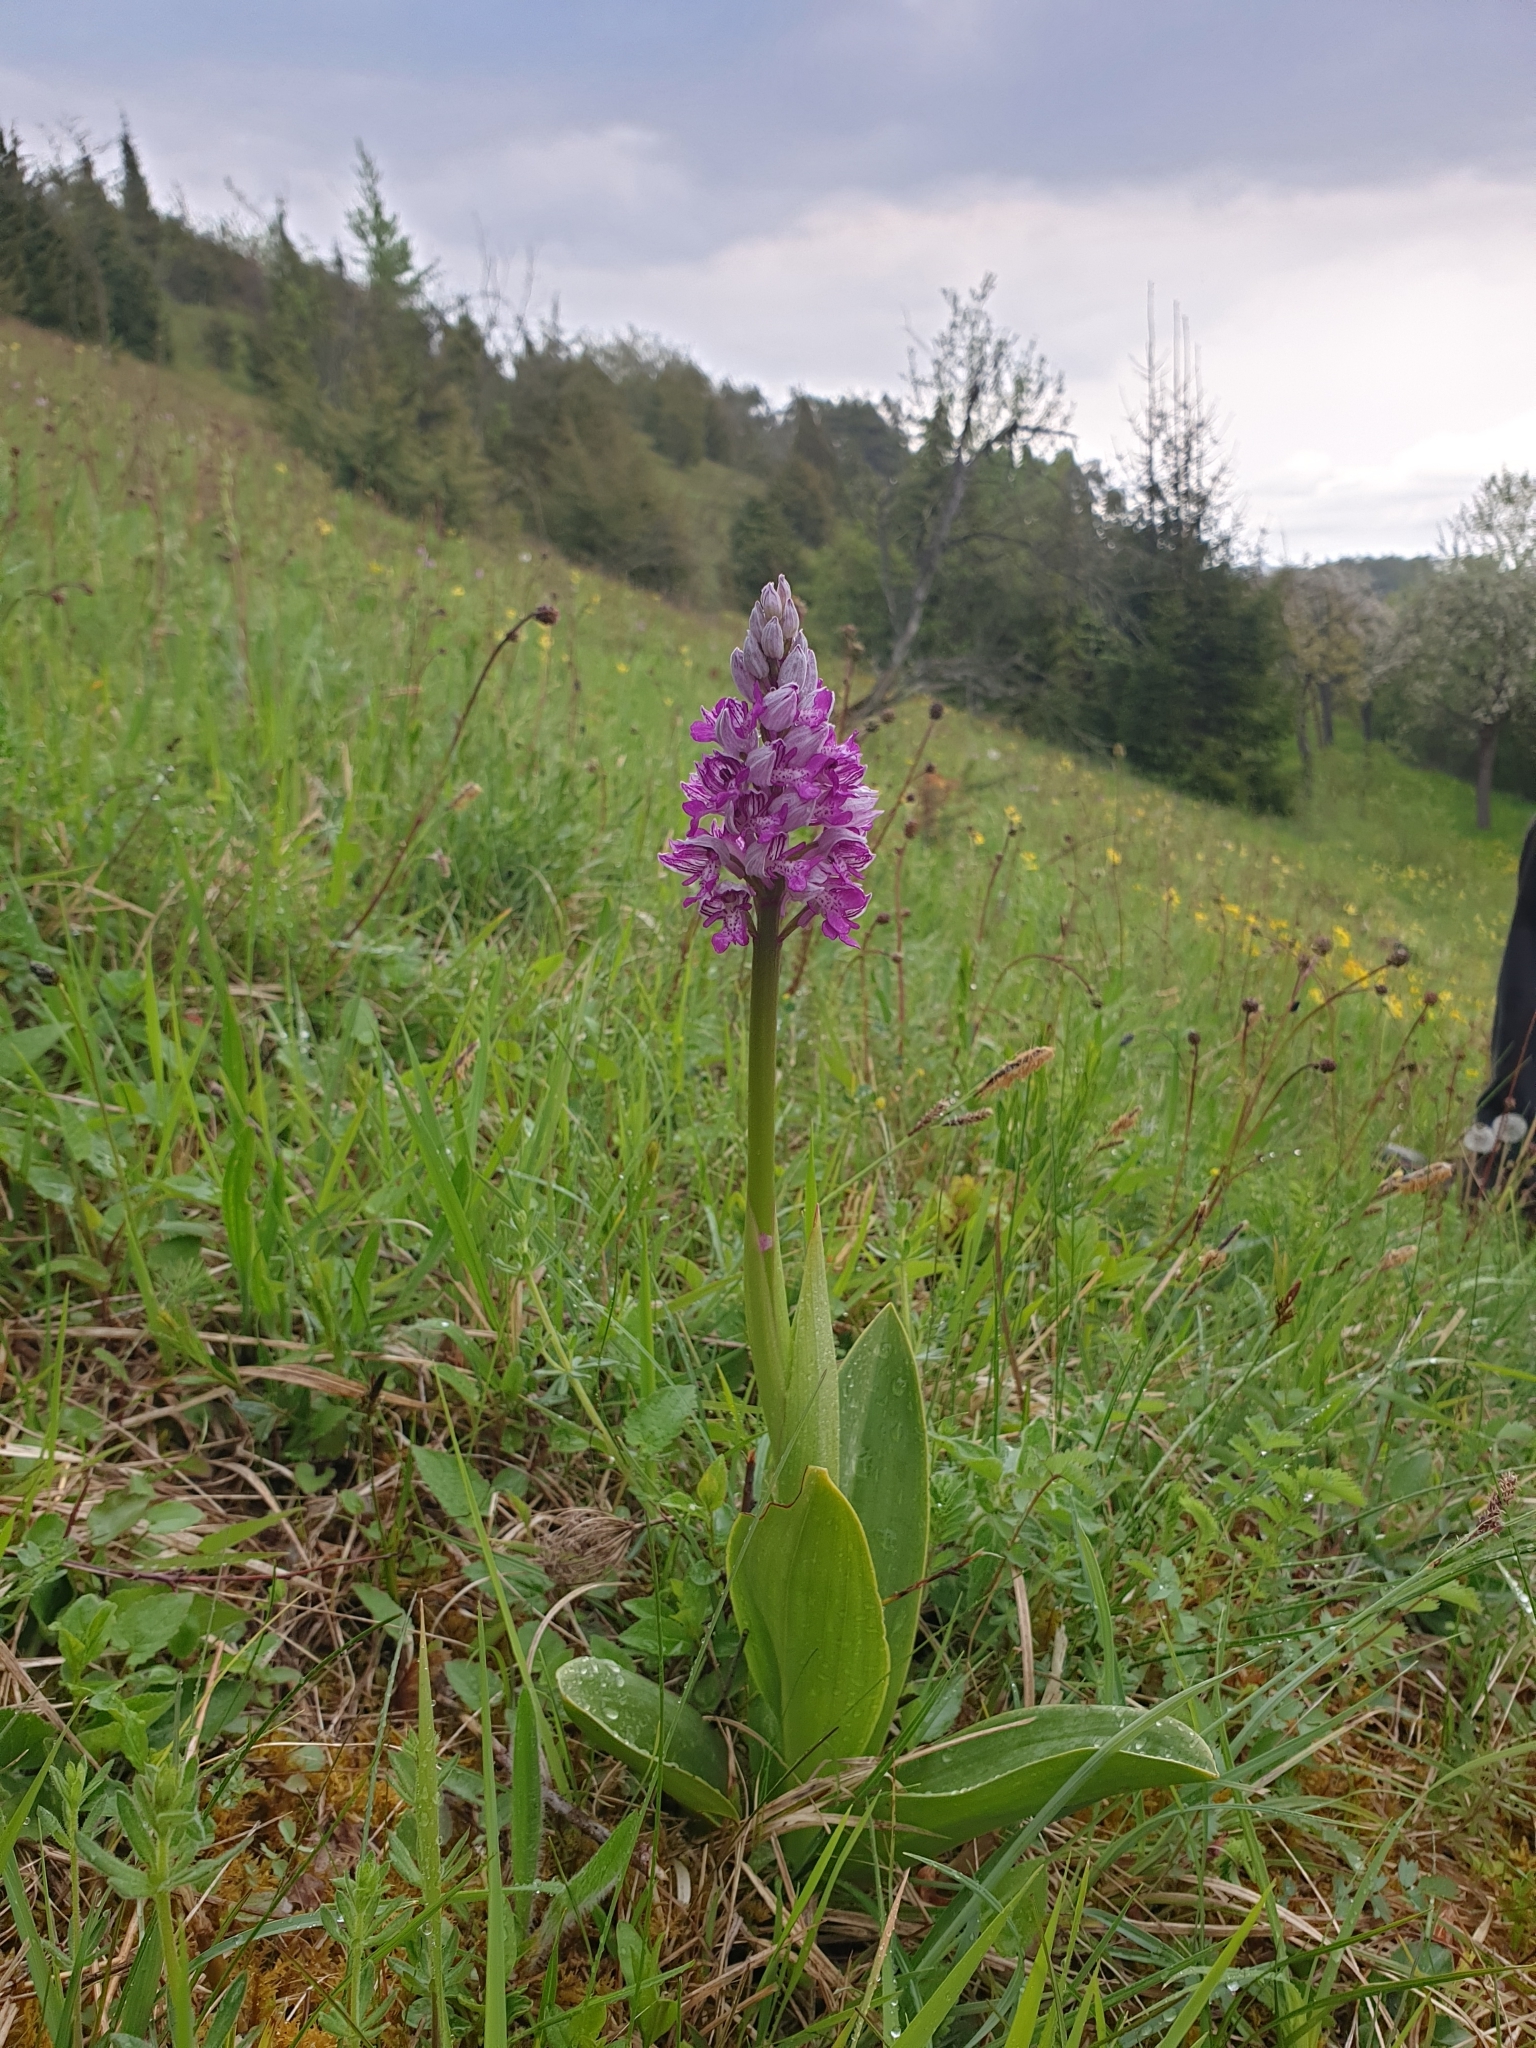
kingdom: Plantae
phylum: Tracheophyta
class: Liliopsida
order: Asparagales
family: Orchidaceae
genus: Orchis
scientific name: Orchis militaris
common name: Military orchid
